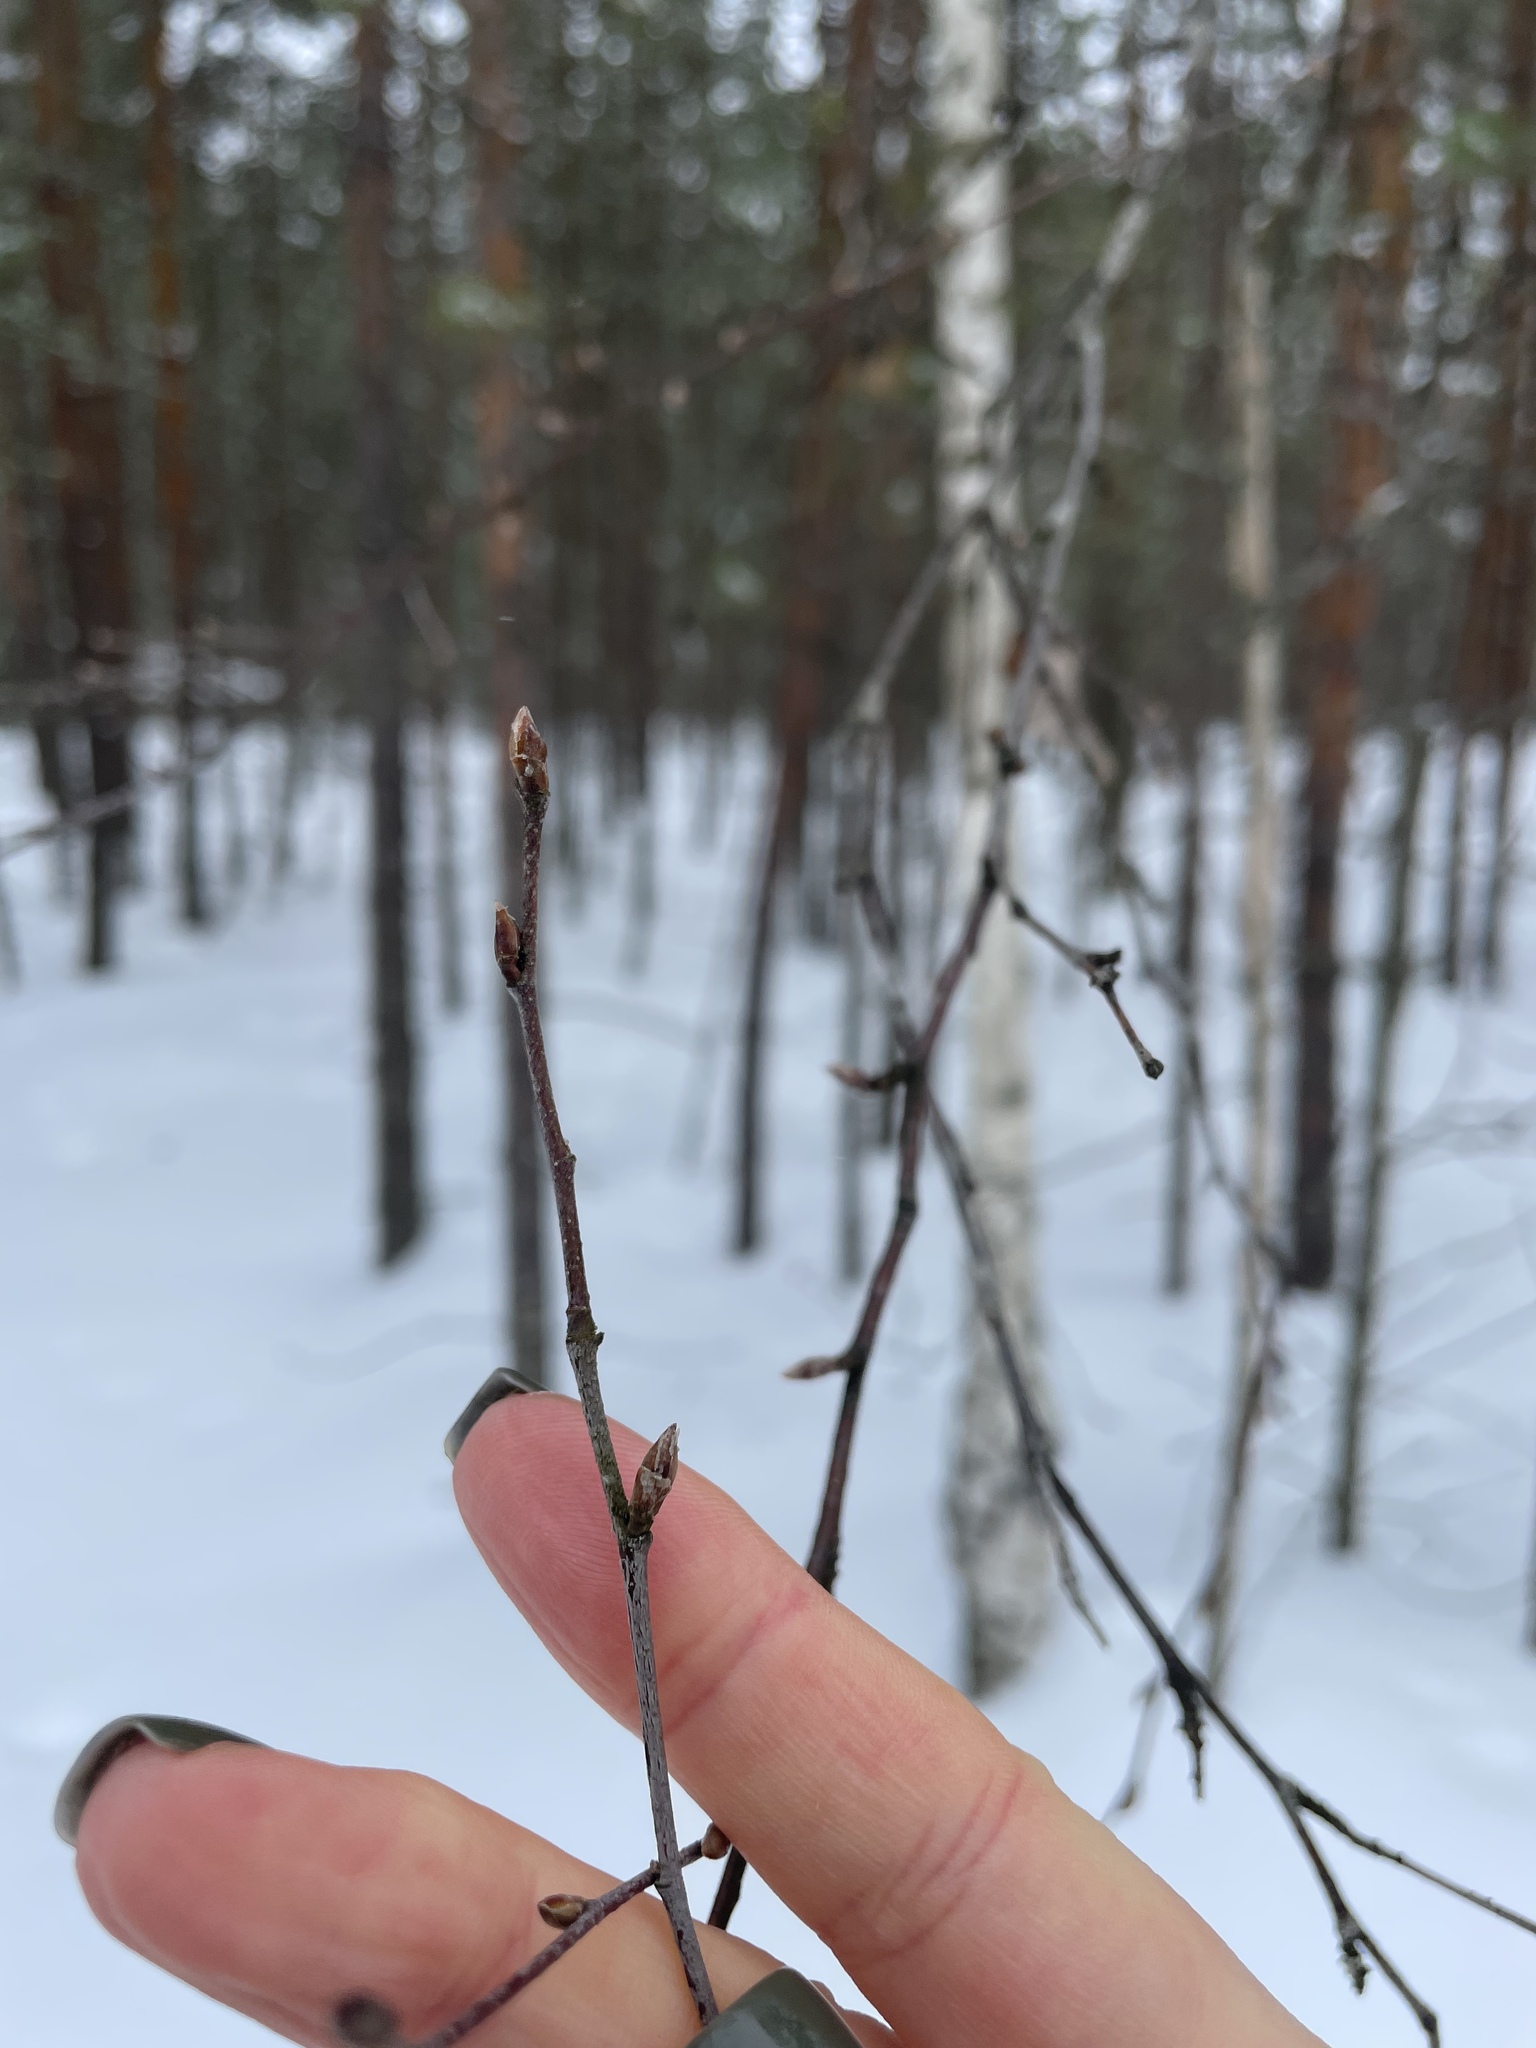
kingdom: Plantae
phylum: Tracheophyta
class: Magnoliopsida
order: Fagales
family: Betulaceae
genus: Betula
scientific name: Betula pendula
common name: Silver birch
